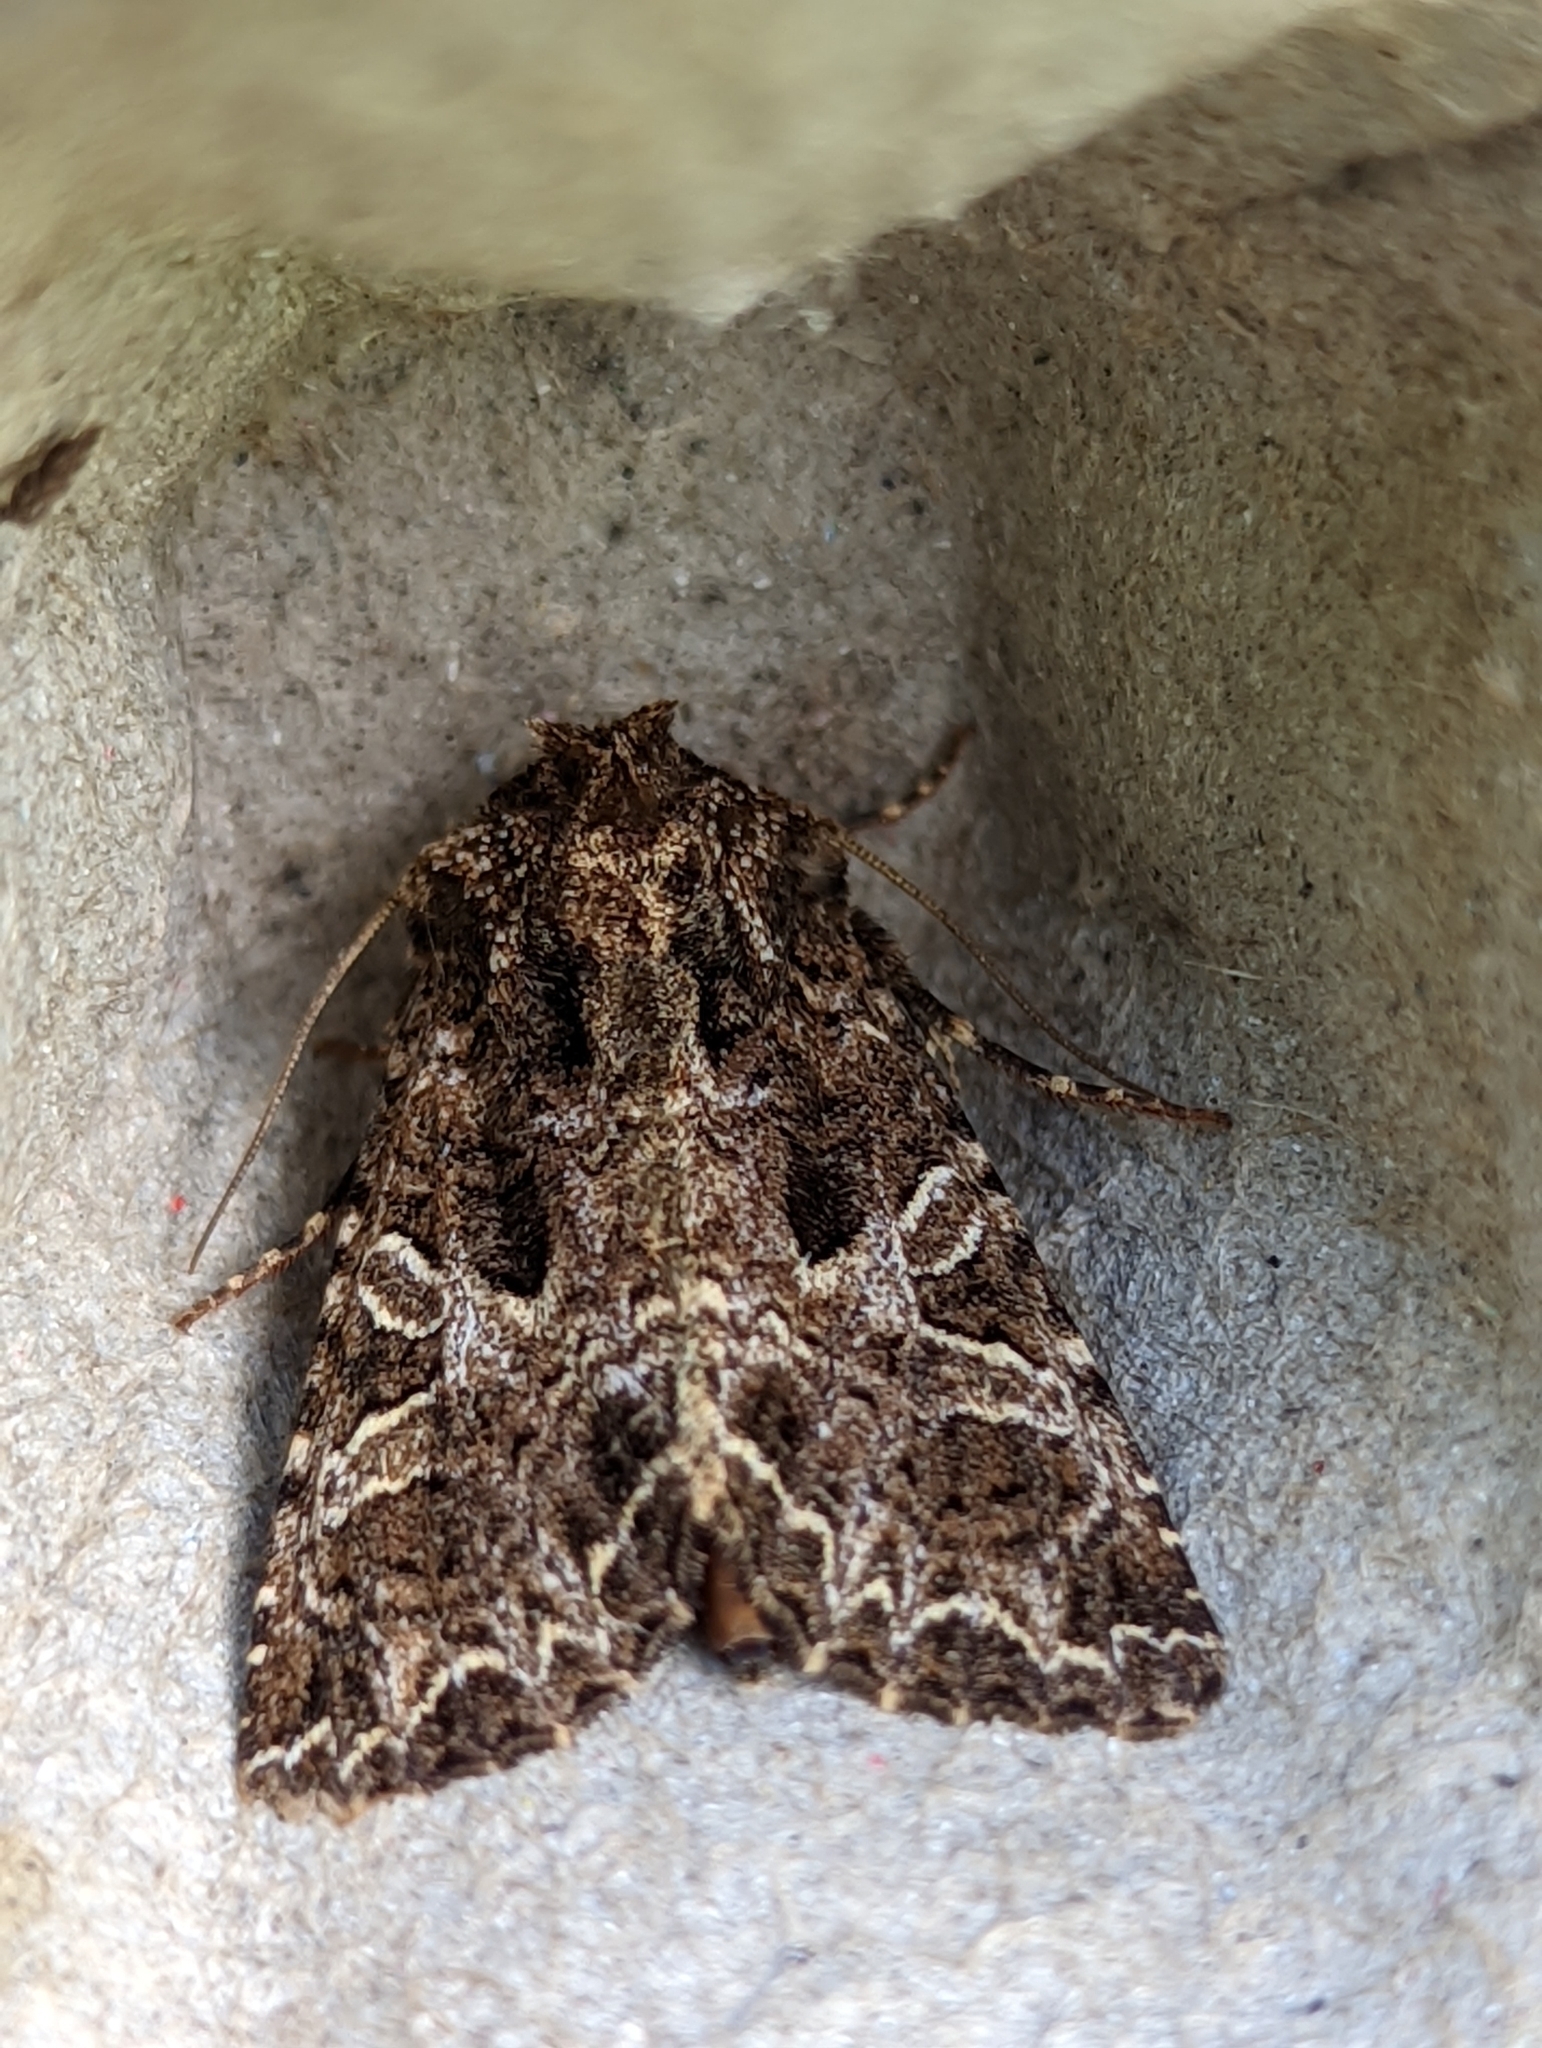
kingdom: Animalia
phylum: Arthropoda
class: Insecta
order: Lepidoptera
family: Noctuidae
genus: Hadena
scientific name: Hadena bicruris
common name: Lychnis
